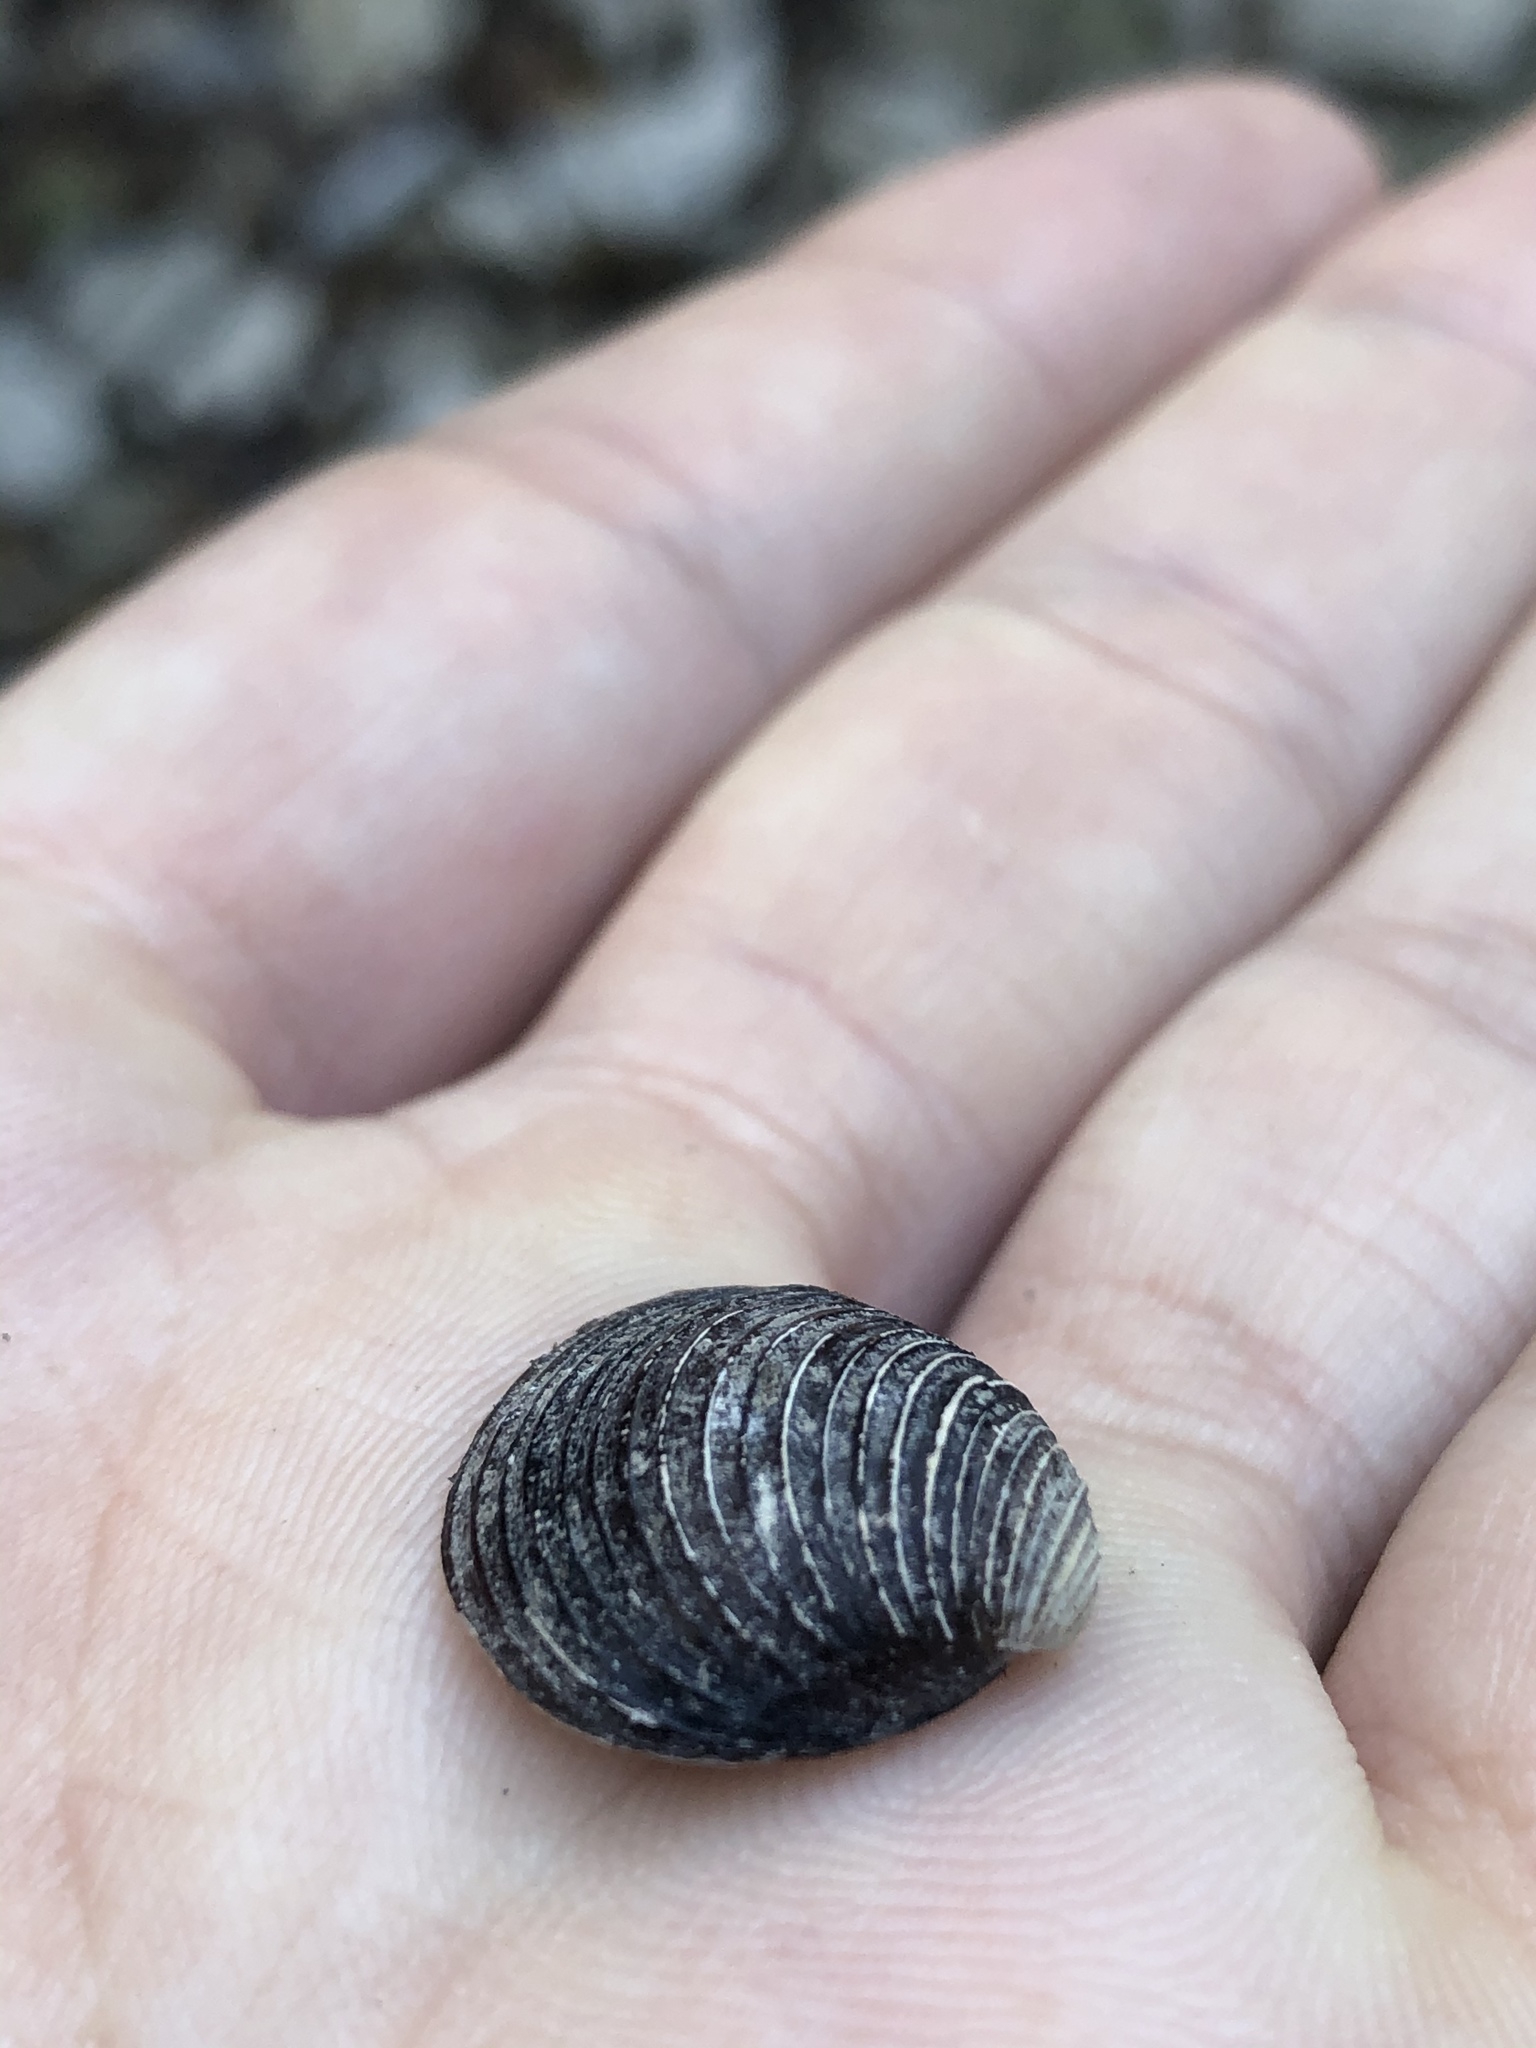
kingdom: Animalia
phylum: Mollusca
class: Bivalvia
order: Venerida
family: Cyrenidae
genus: Corbicula
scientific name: Corbicula fluminea
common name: Asian clam
